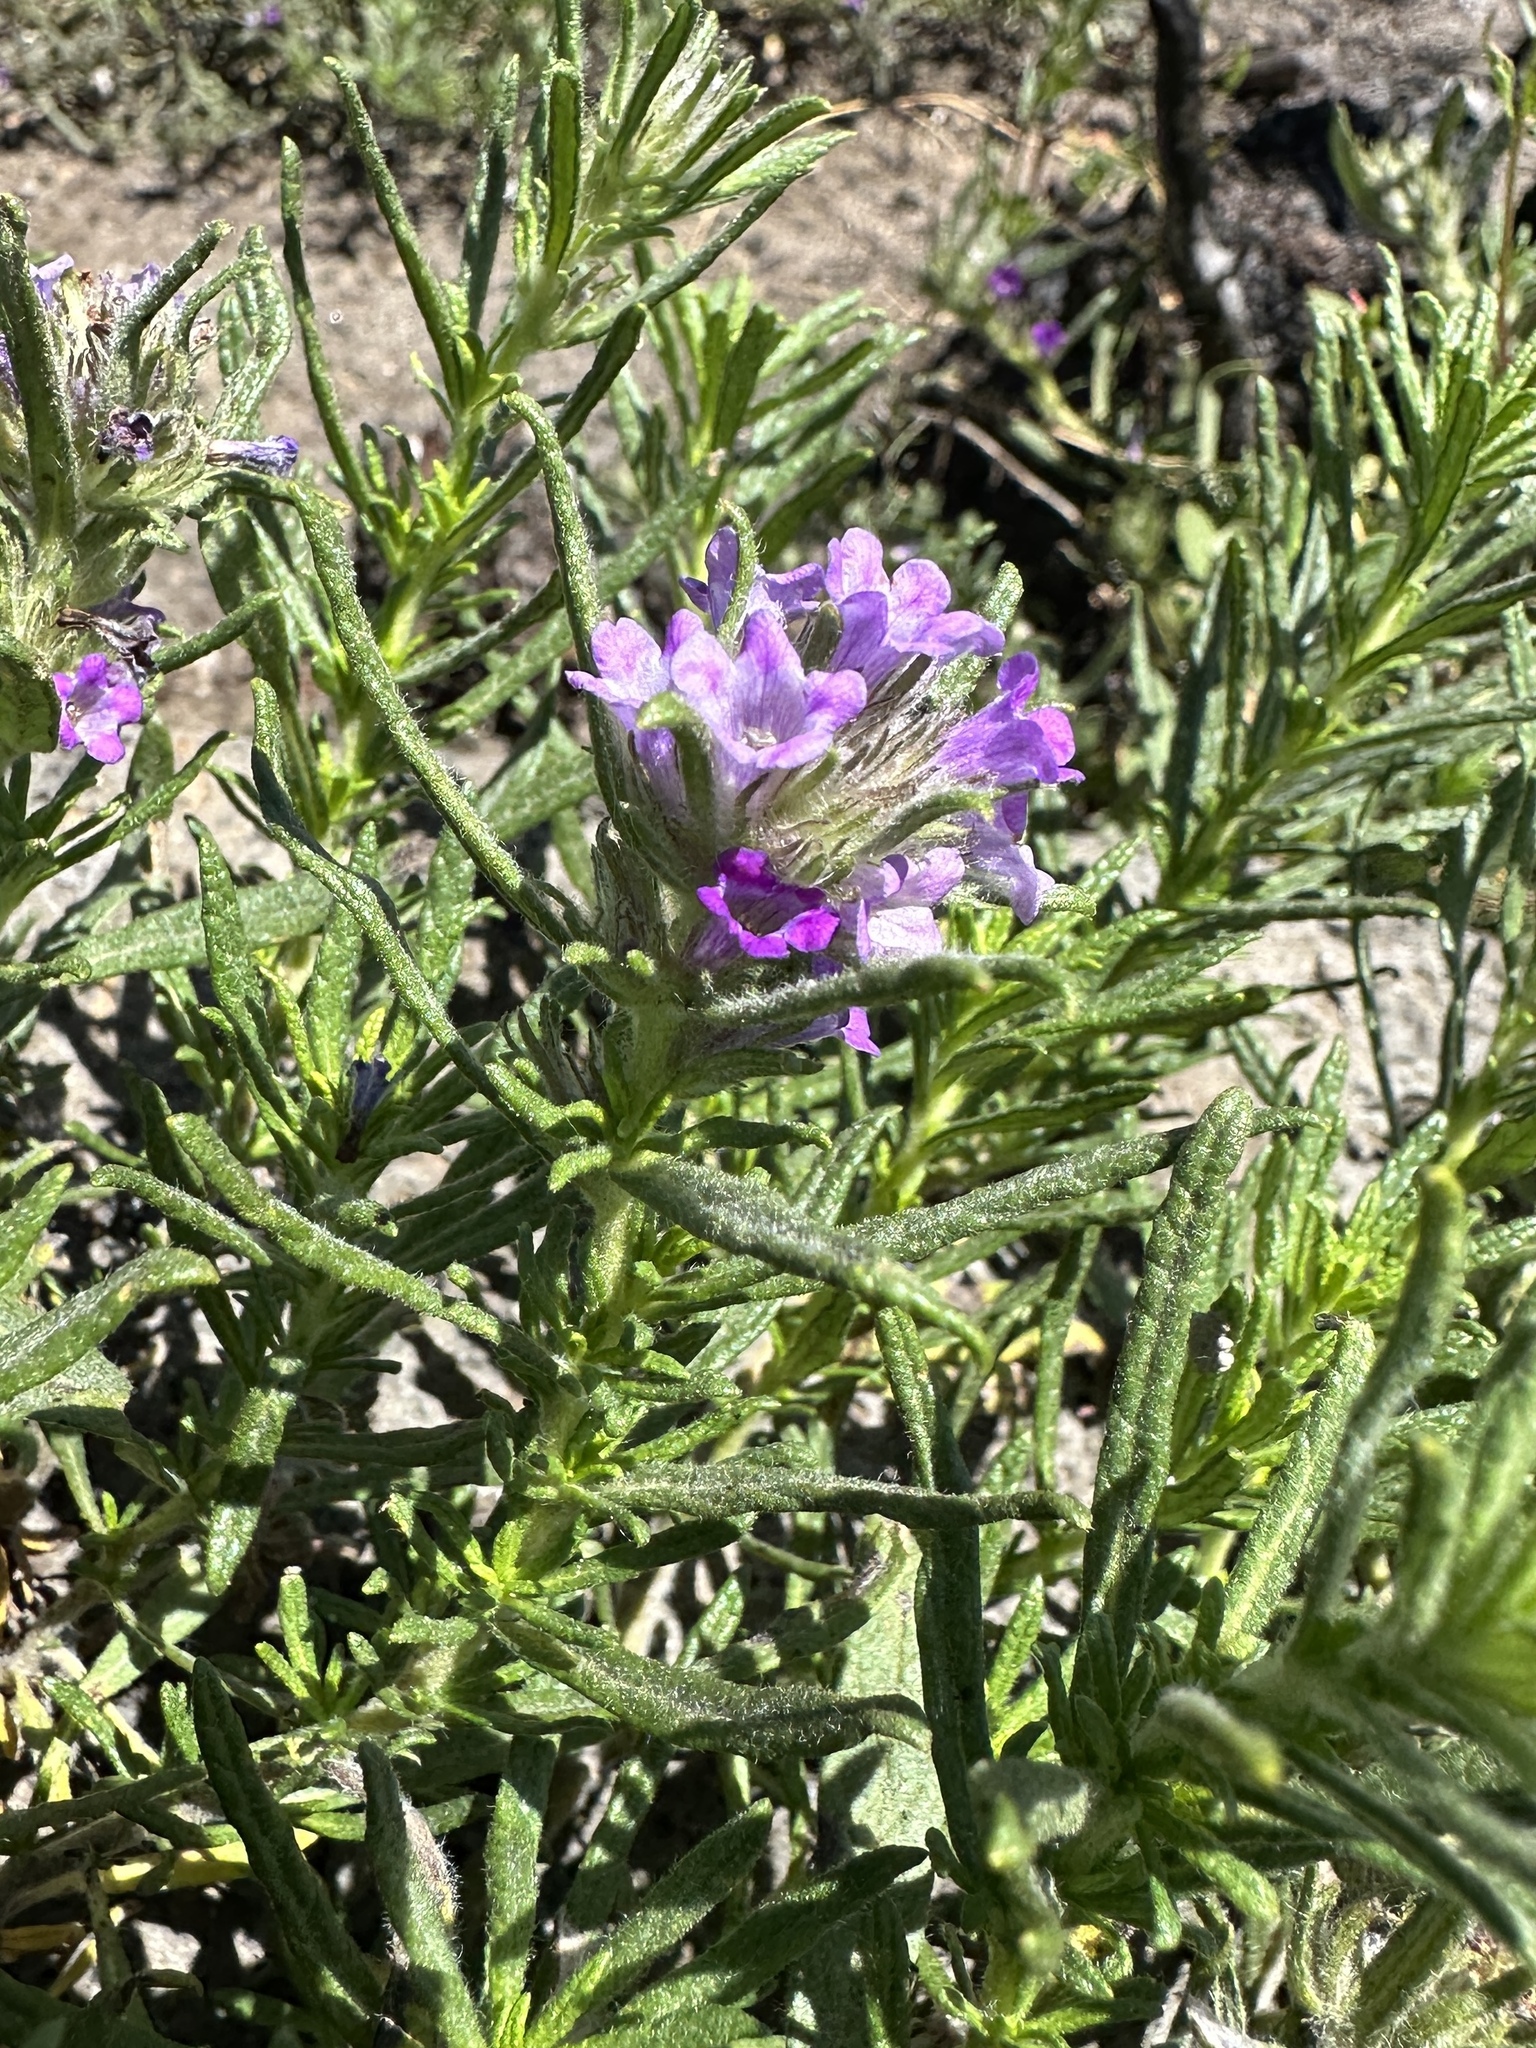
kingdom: Plantae
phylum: Tracheophyta
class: Magnoliopsida
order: Boraginales
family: Namaceae
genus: Nama
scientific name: Nama lobbii
